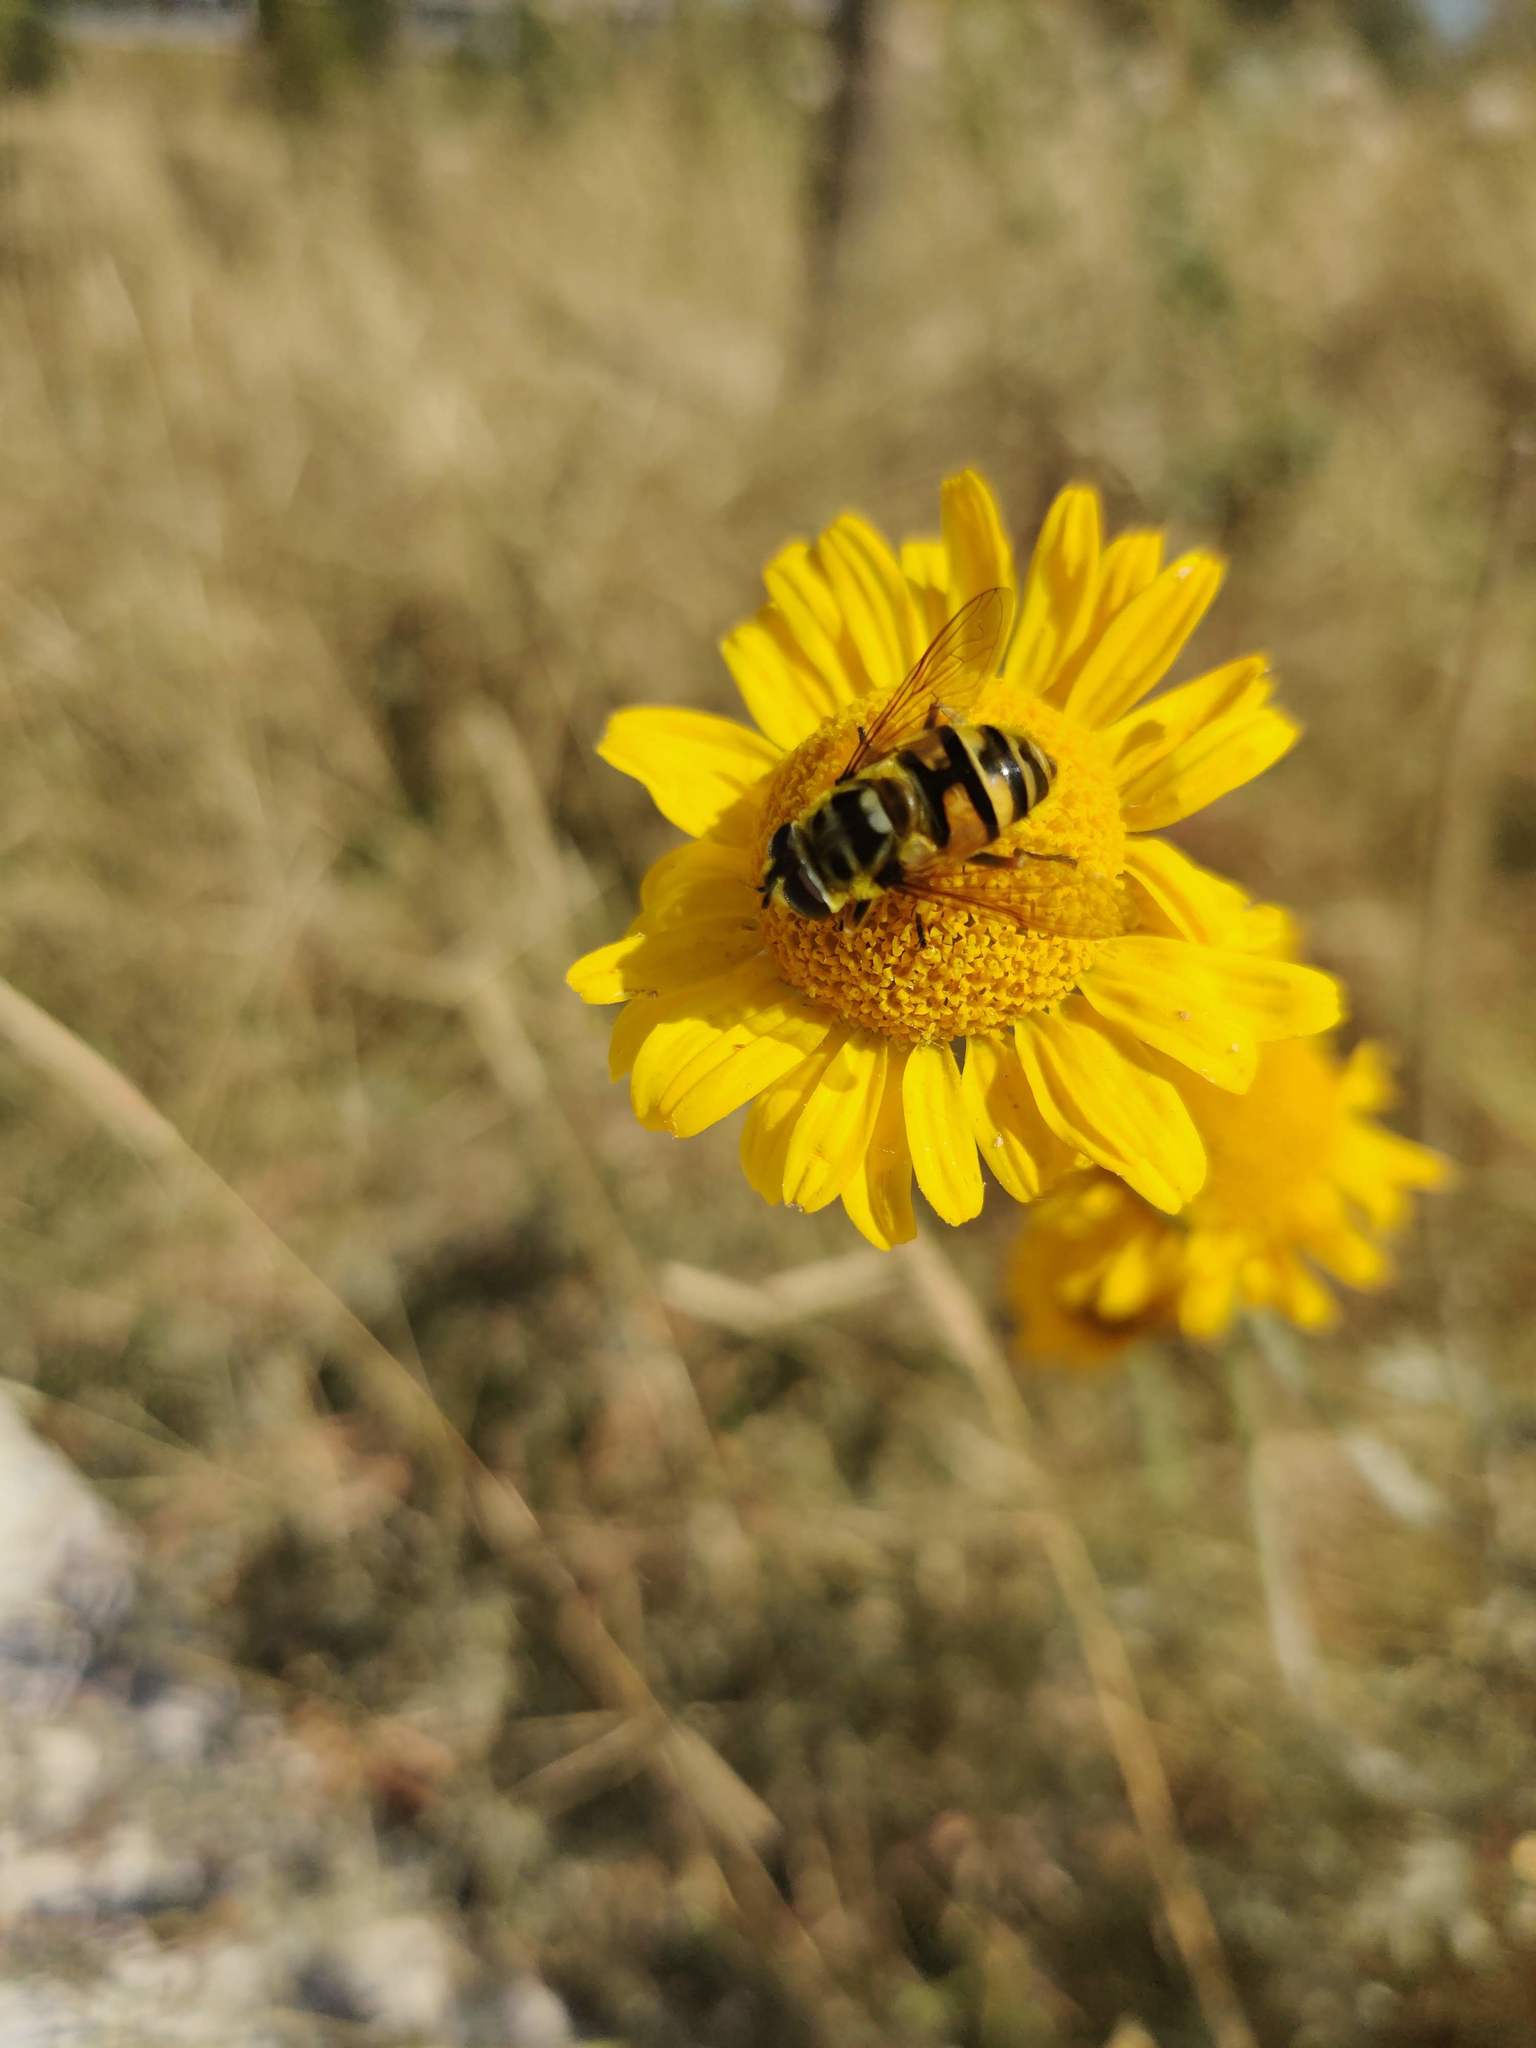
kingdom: Animalia
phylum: Arthropoda
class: Insecta
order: Diptera
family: Syrphidae
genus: Myathropa
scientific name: Myathropa florea
